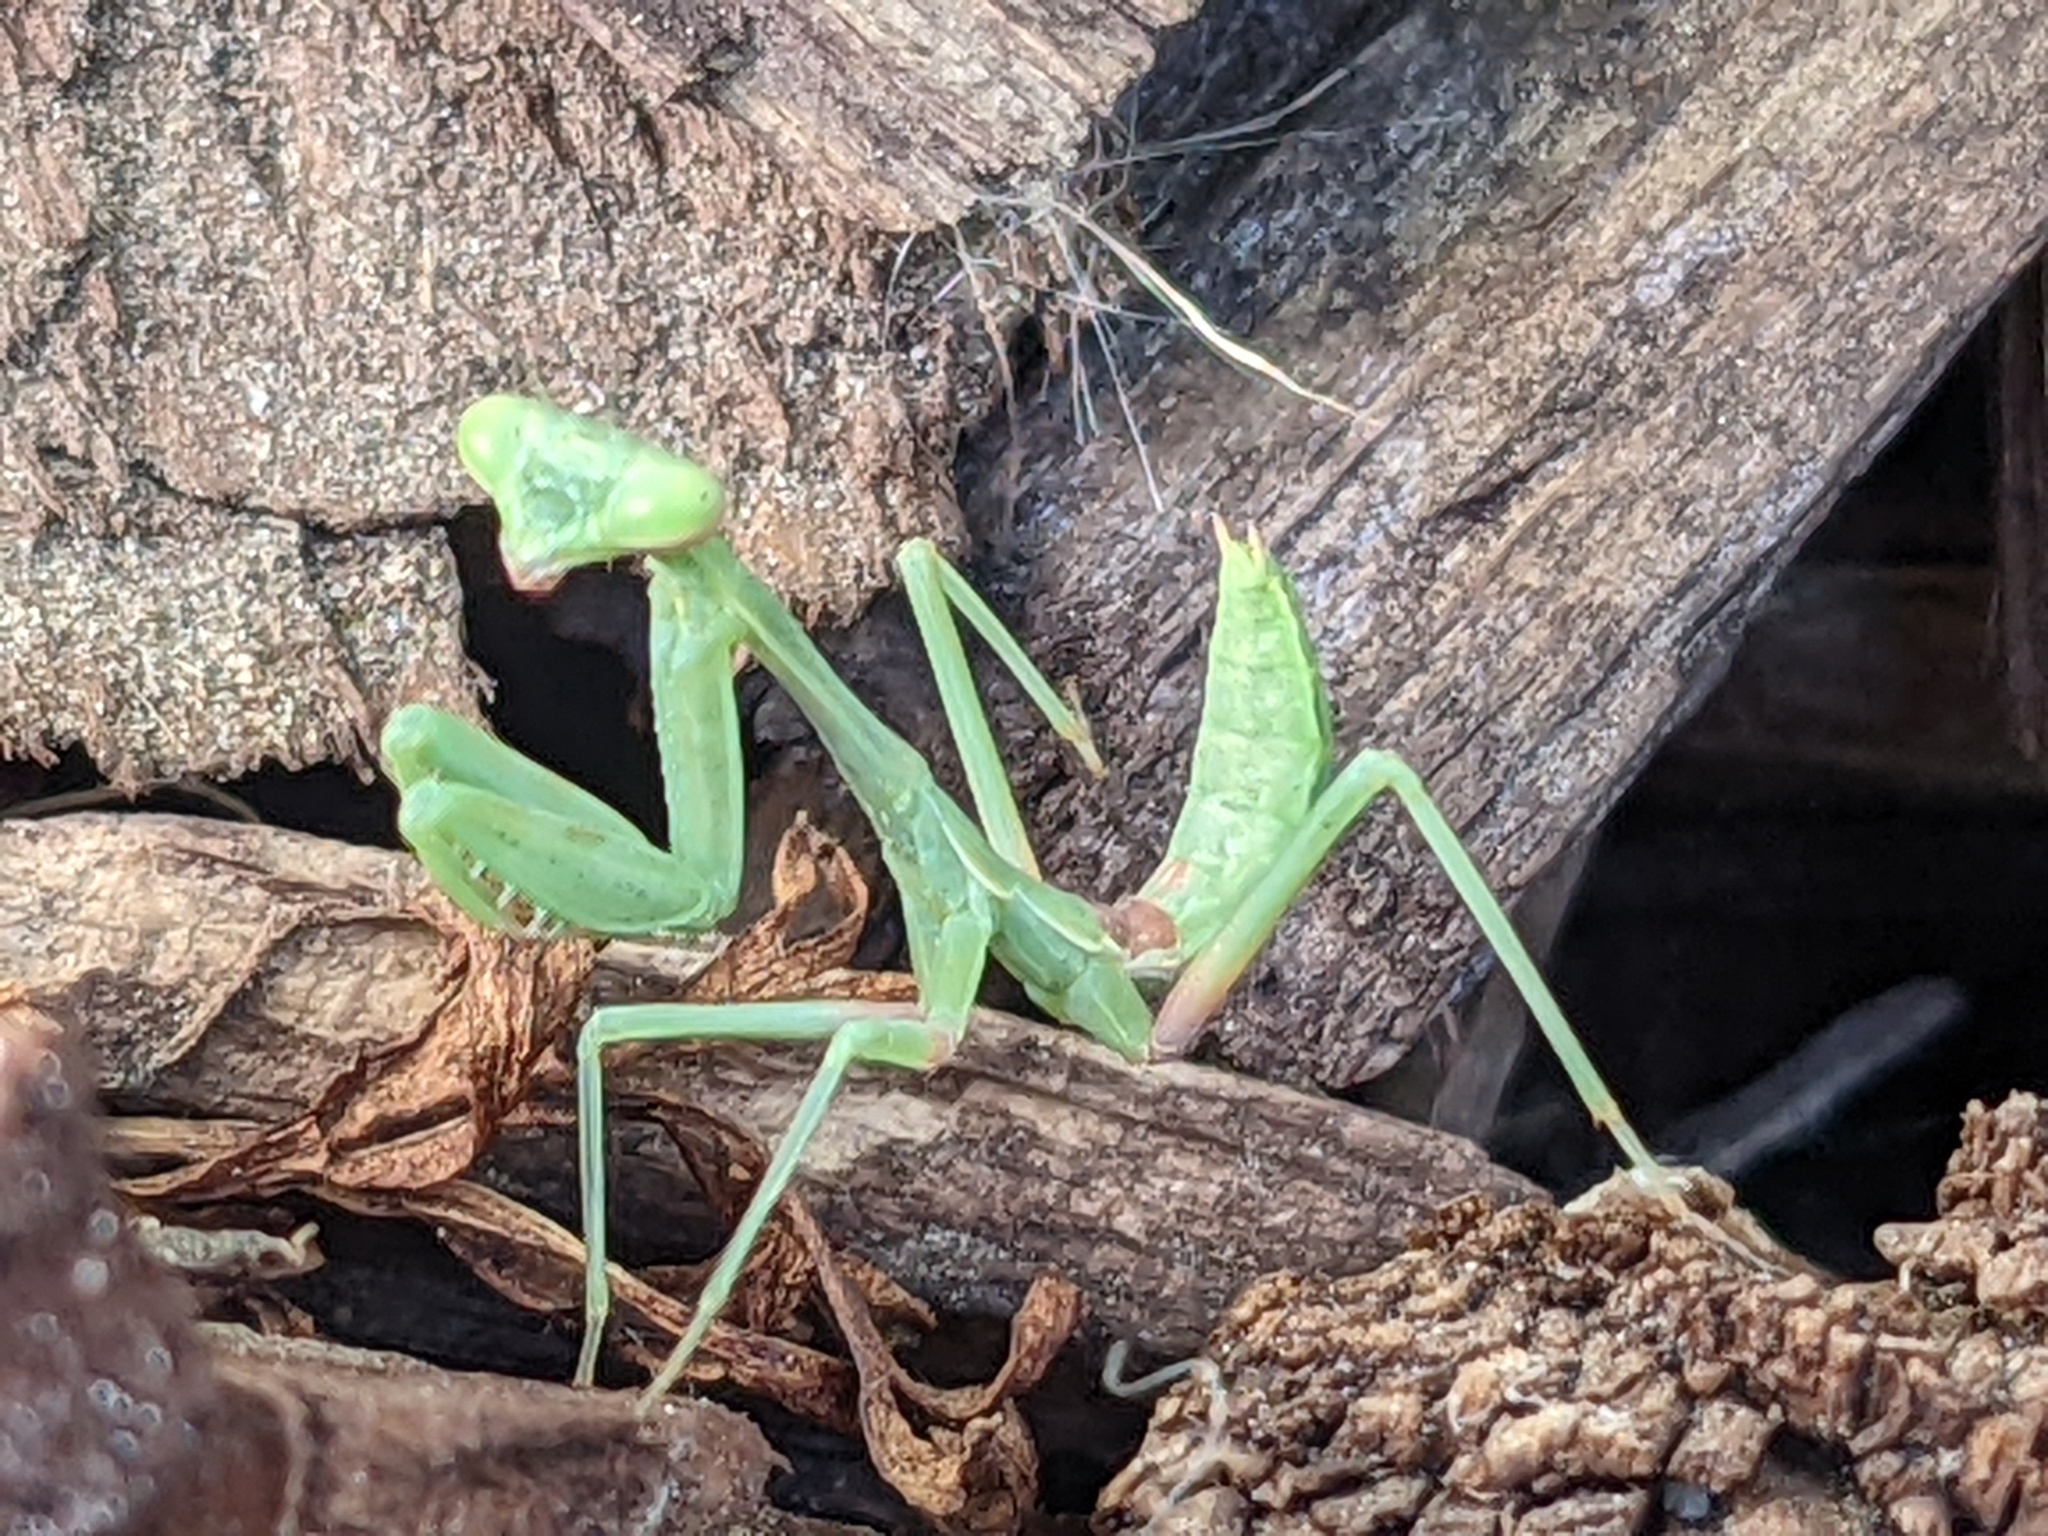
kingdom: Animalia
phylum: Arthropoda
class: Insecta
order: Mantodea
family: Mantidae
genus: Stagmomantis
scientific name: Stagmomantis limbata
